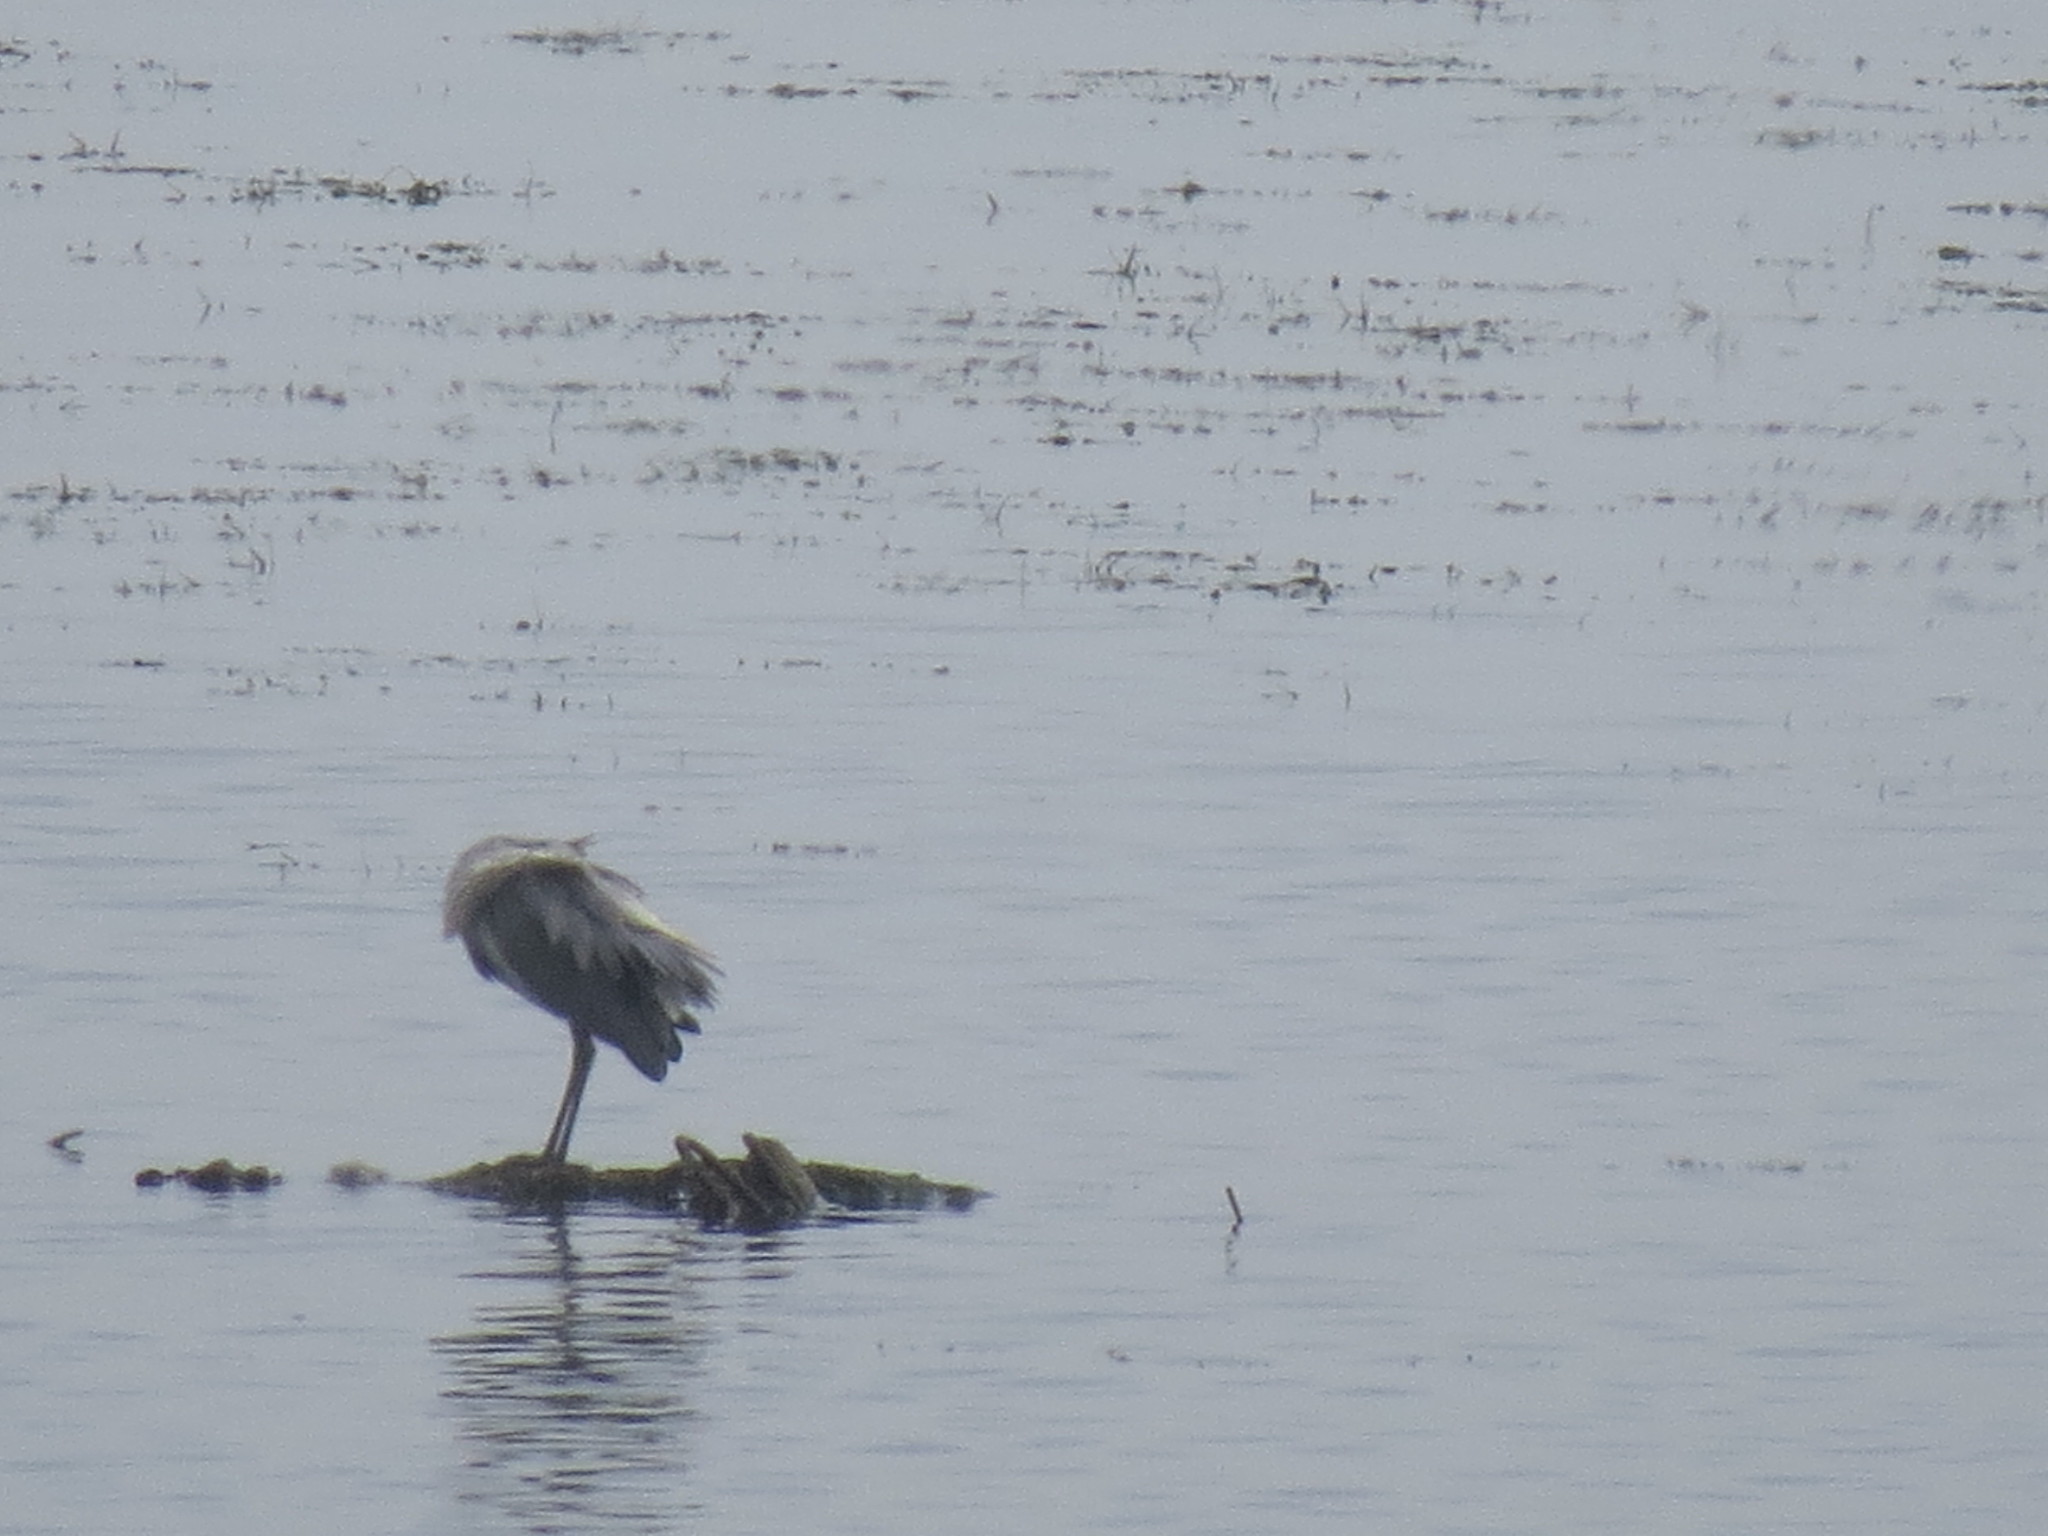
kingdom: Animalia
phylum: Chordata
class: Aves
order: Pelecaniformes
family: Ardeidae
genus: Ardea
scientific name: Ardea cinerea
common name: Grey heron
